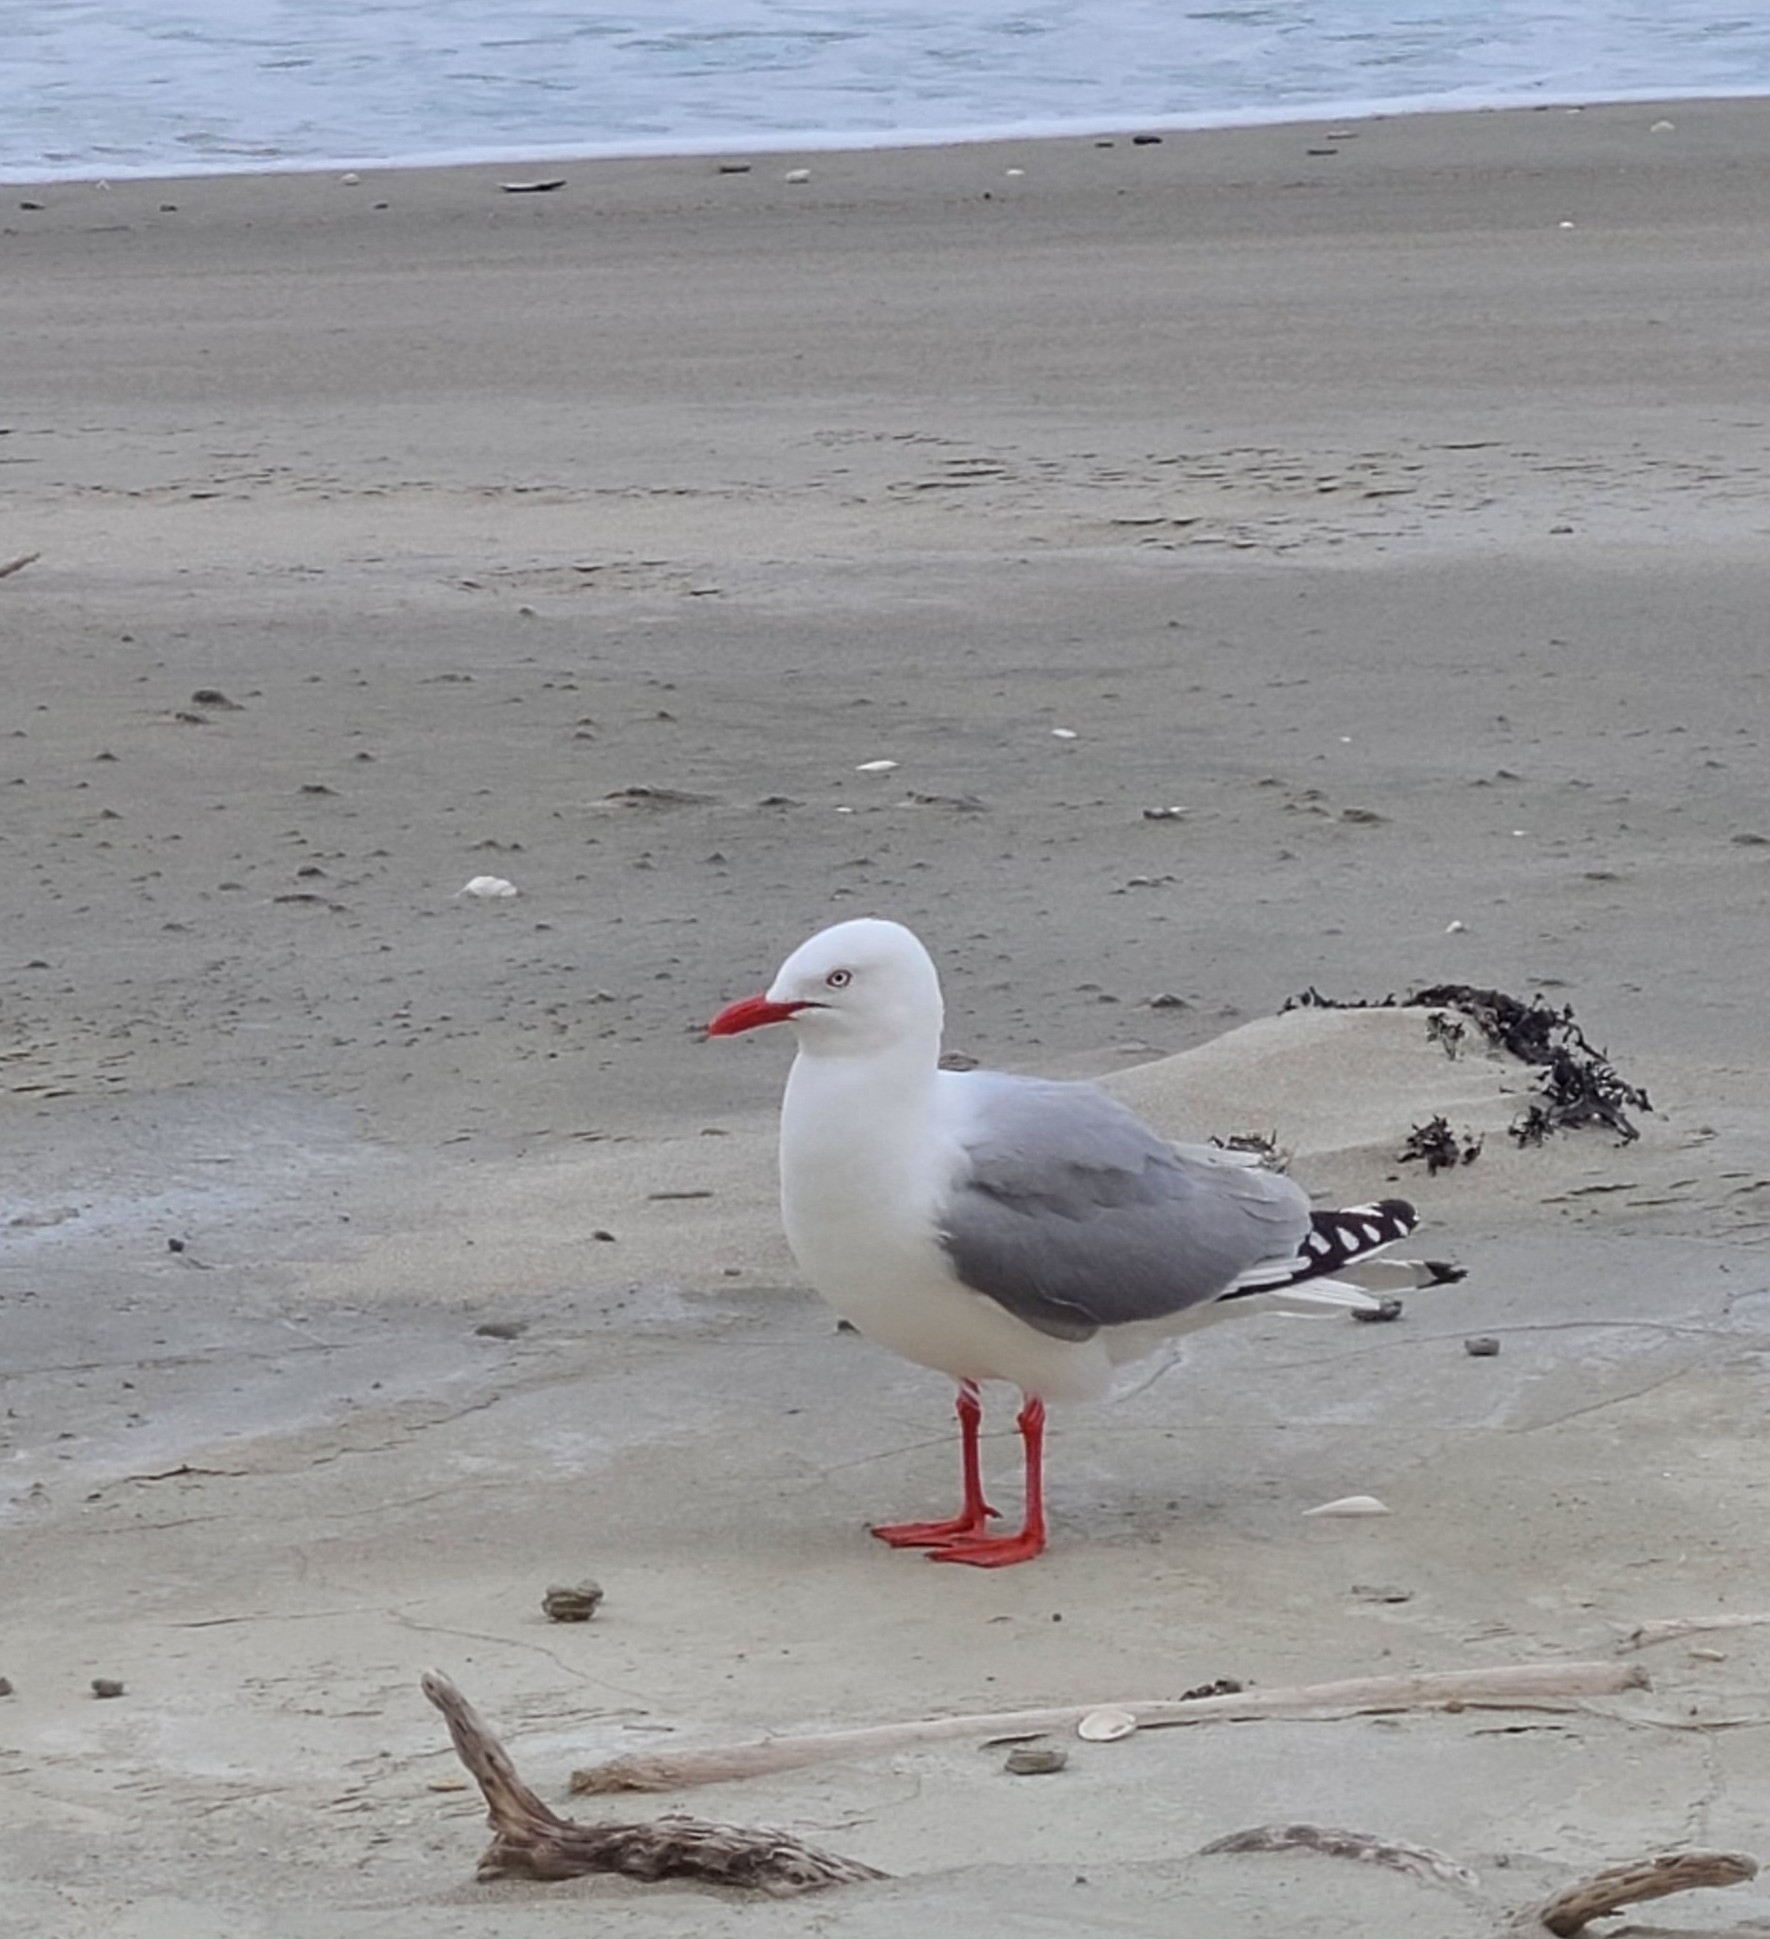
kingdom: Animalia
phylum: Chordata
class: Aves
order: Charadriiformes
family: Laridae
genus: Chroicocephalus
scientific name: Chroicocephalus novaehollandiae
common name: Silver gull
